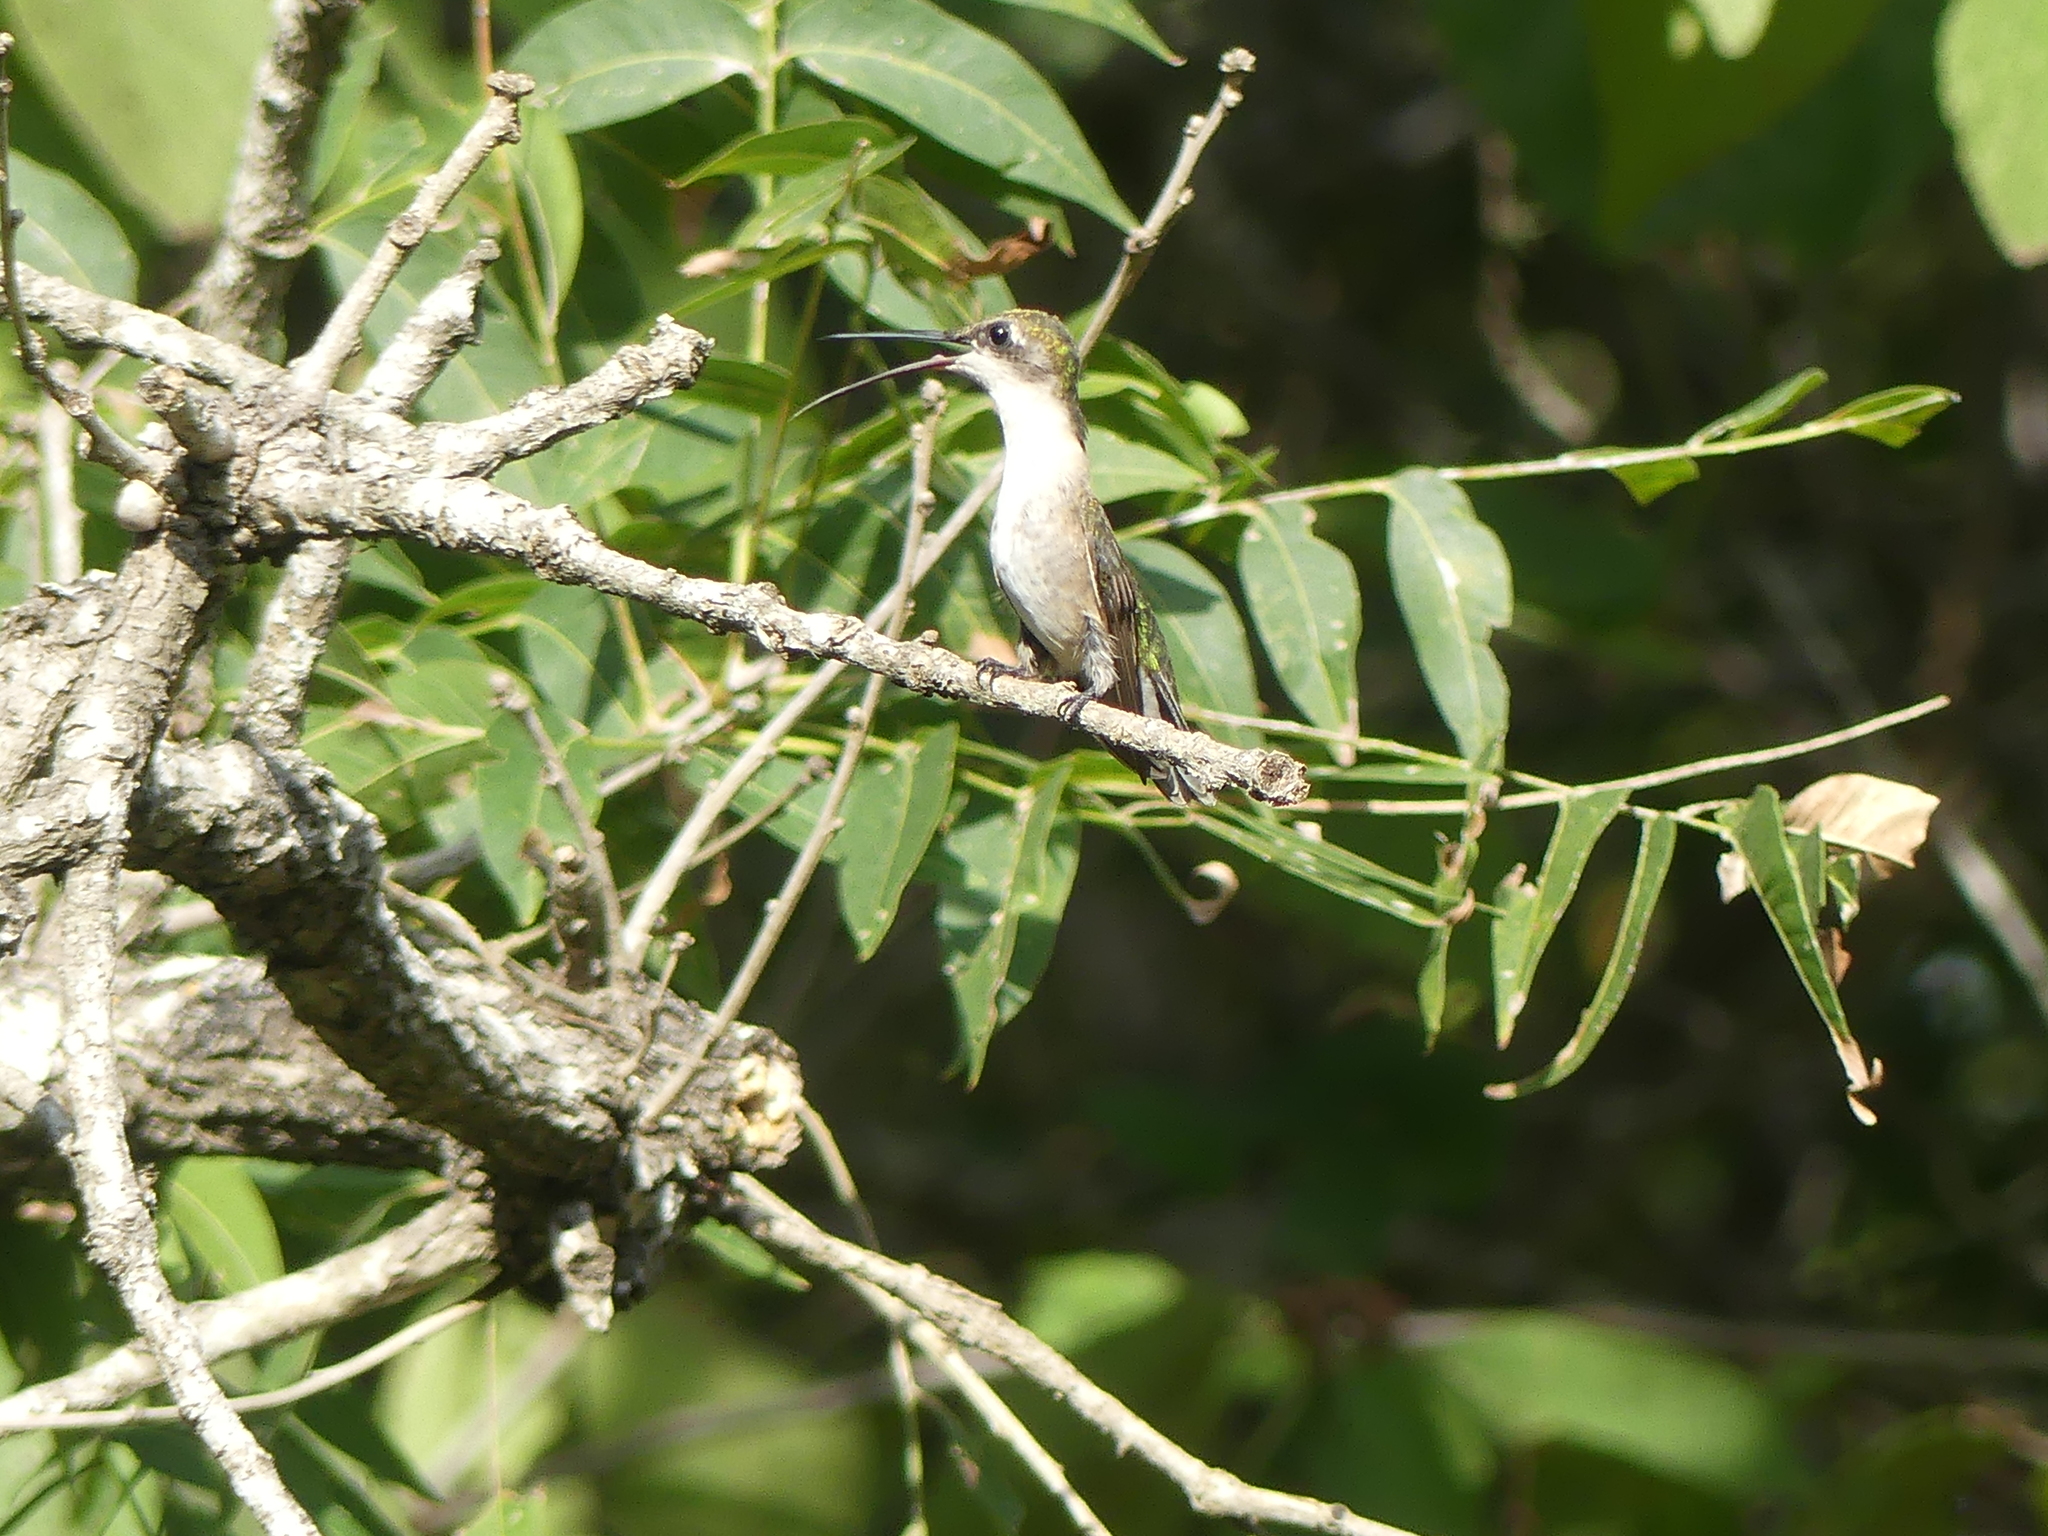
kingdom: Animalia
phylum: Chordata
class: Aves
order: Apodiformes
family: Trochilidae
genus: Archilochus
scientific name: Archilochus colubris
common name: Ruby-throated hummingbird
